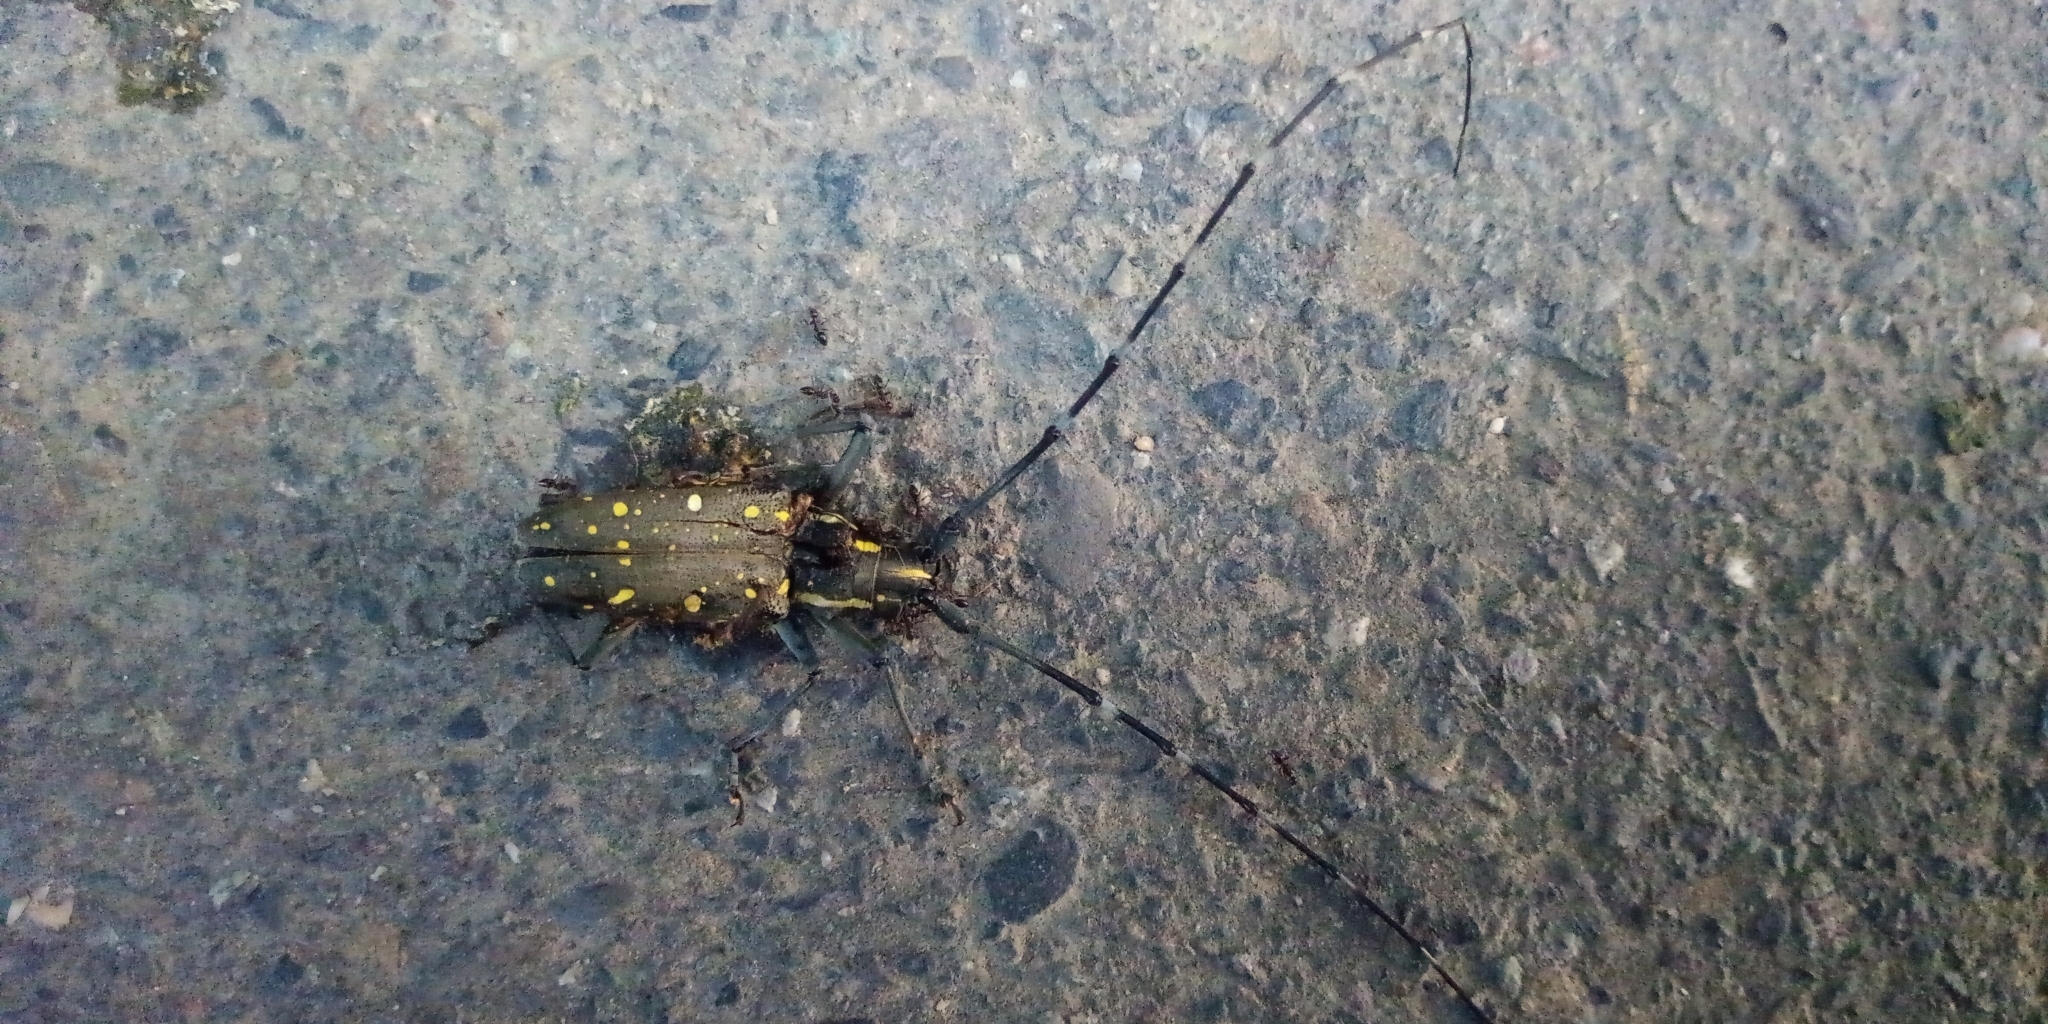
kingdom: Animalia
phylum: Arthropoda
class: Insecta
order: Coleoptera
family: Cerambycidae
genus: Psacothea
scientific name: Psacothea hilaris
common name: Yellow-spotted longicorn beetle
